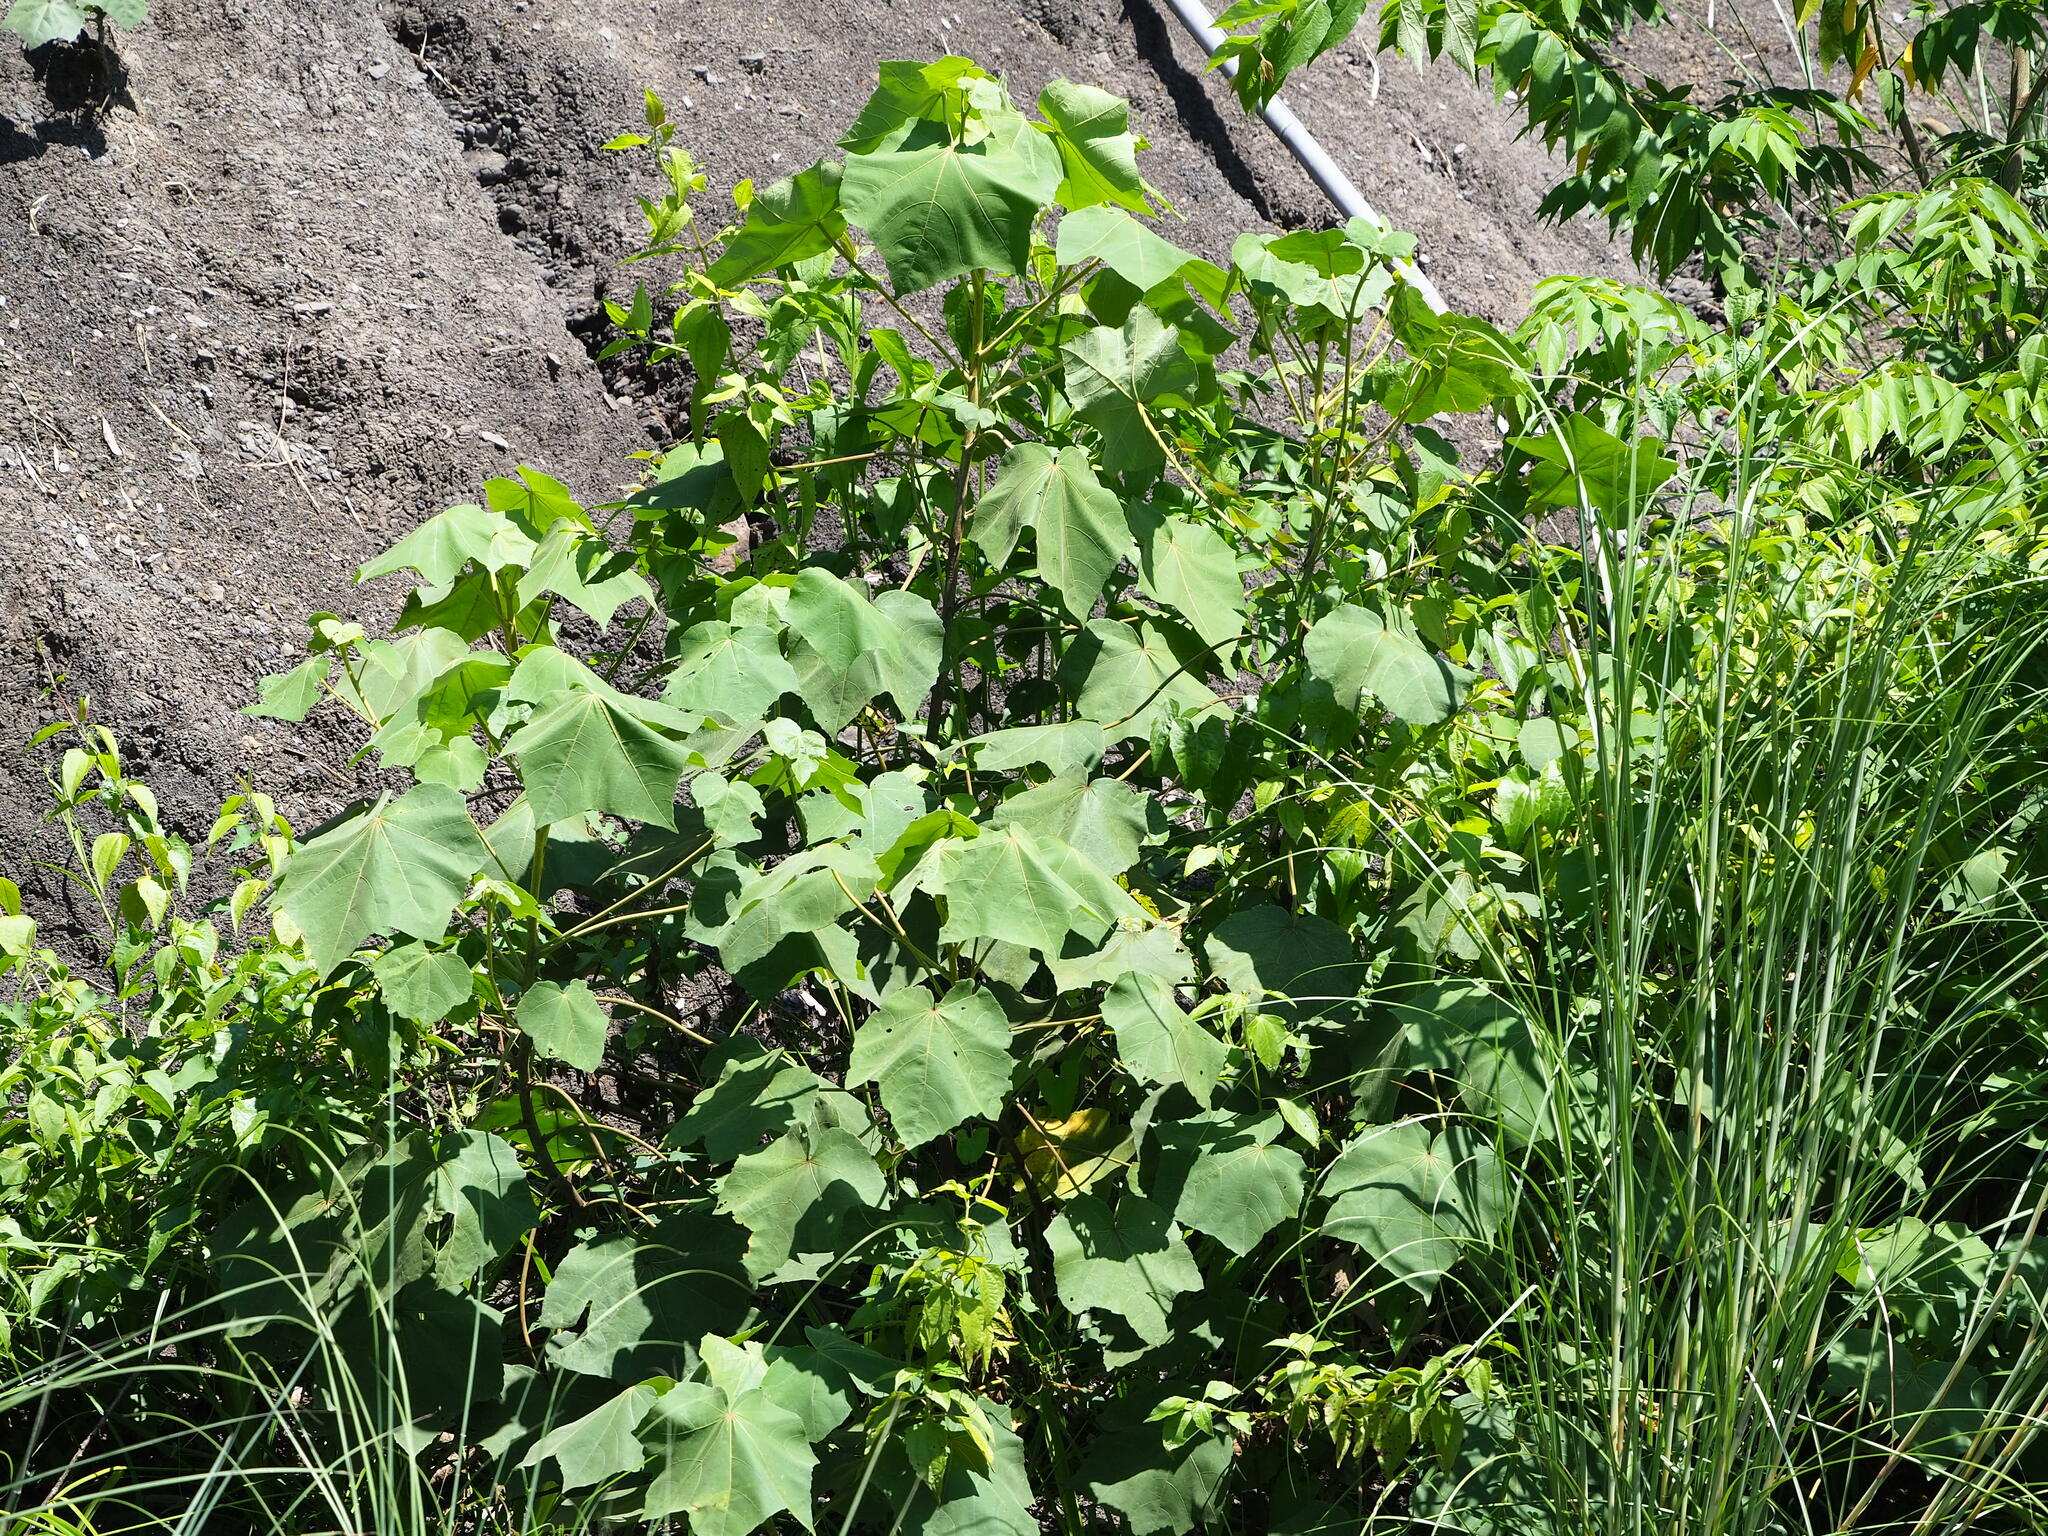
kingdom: Plantae
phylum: Tracheophyta
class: Magnoliopsida
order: Malvales
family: Malvaceae
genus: Hibiscus
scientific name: Hibiscus taiwanensis
